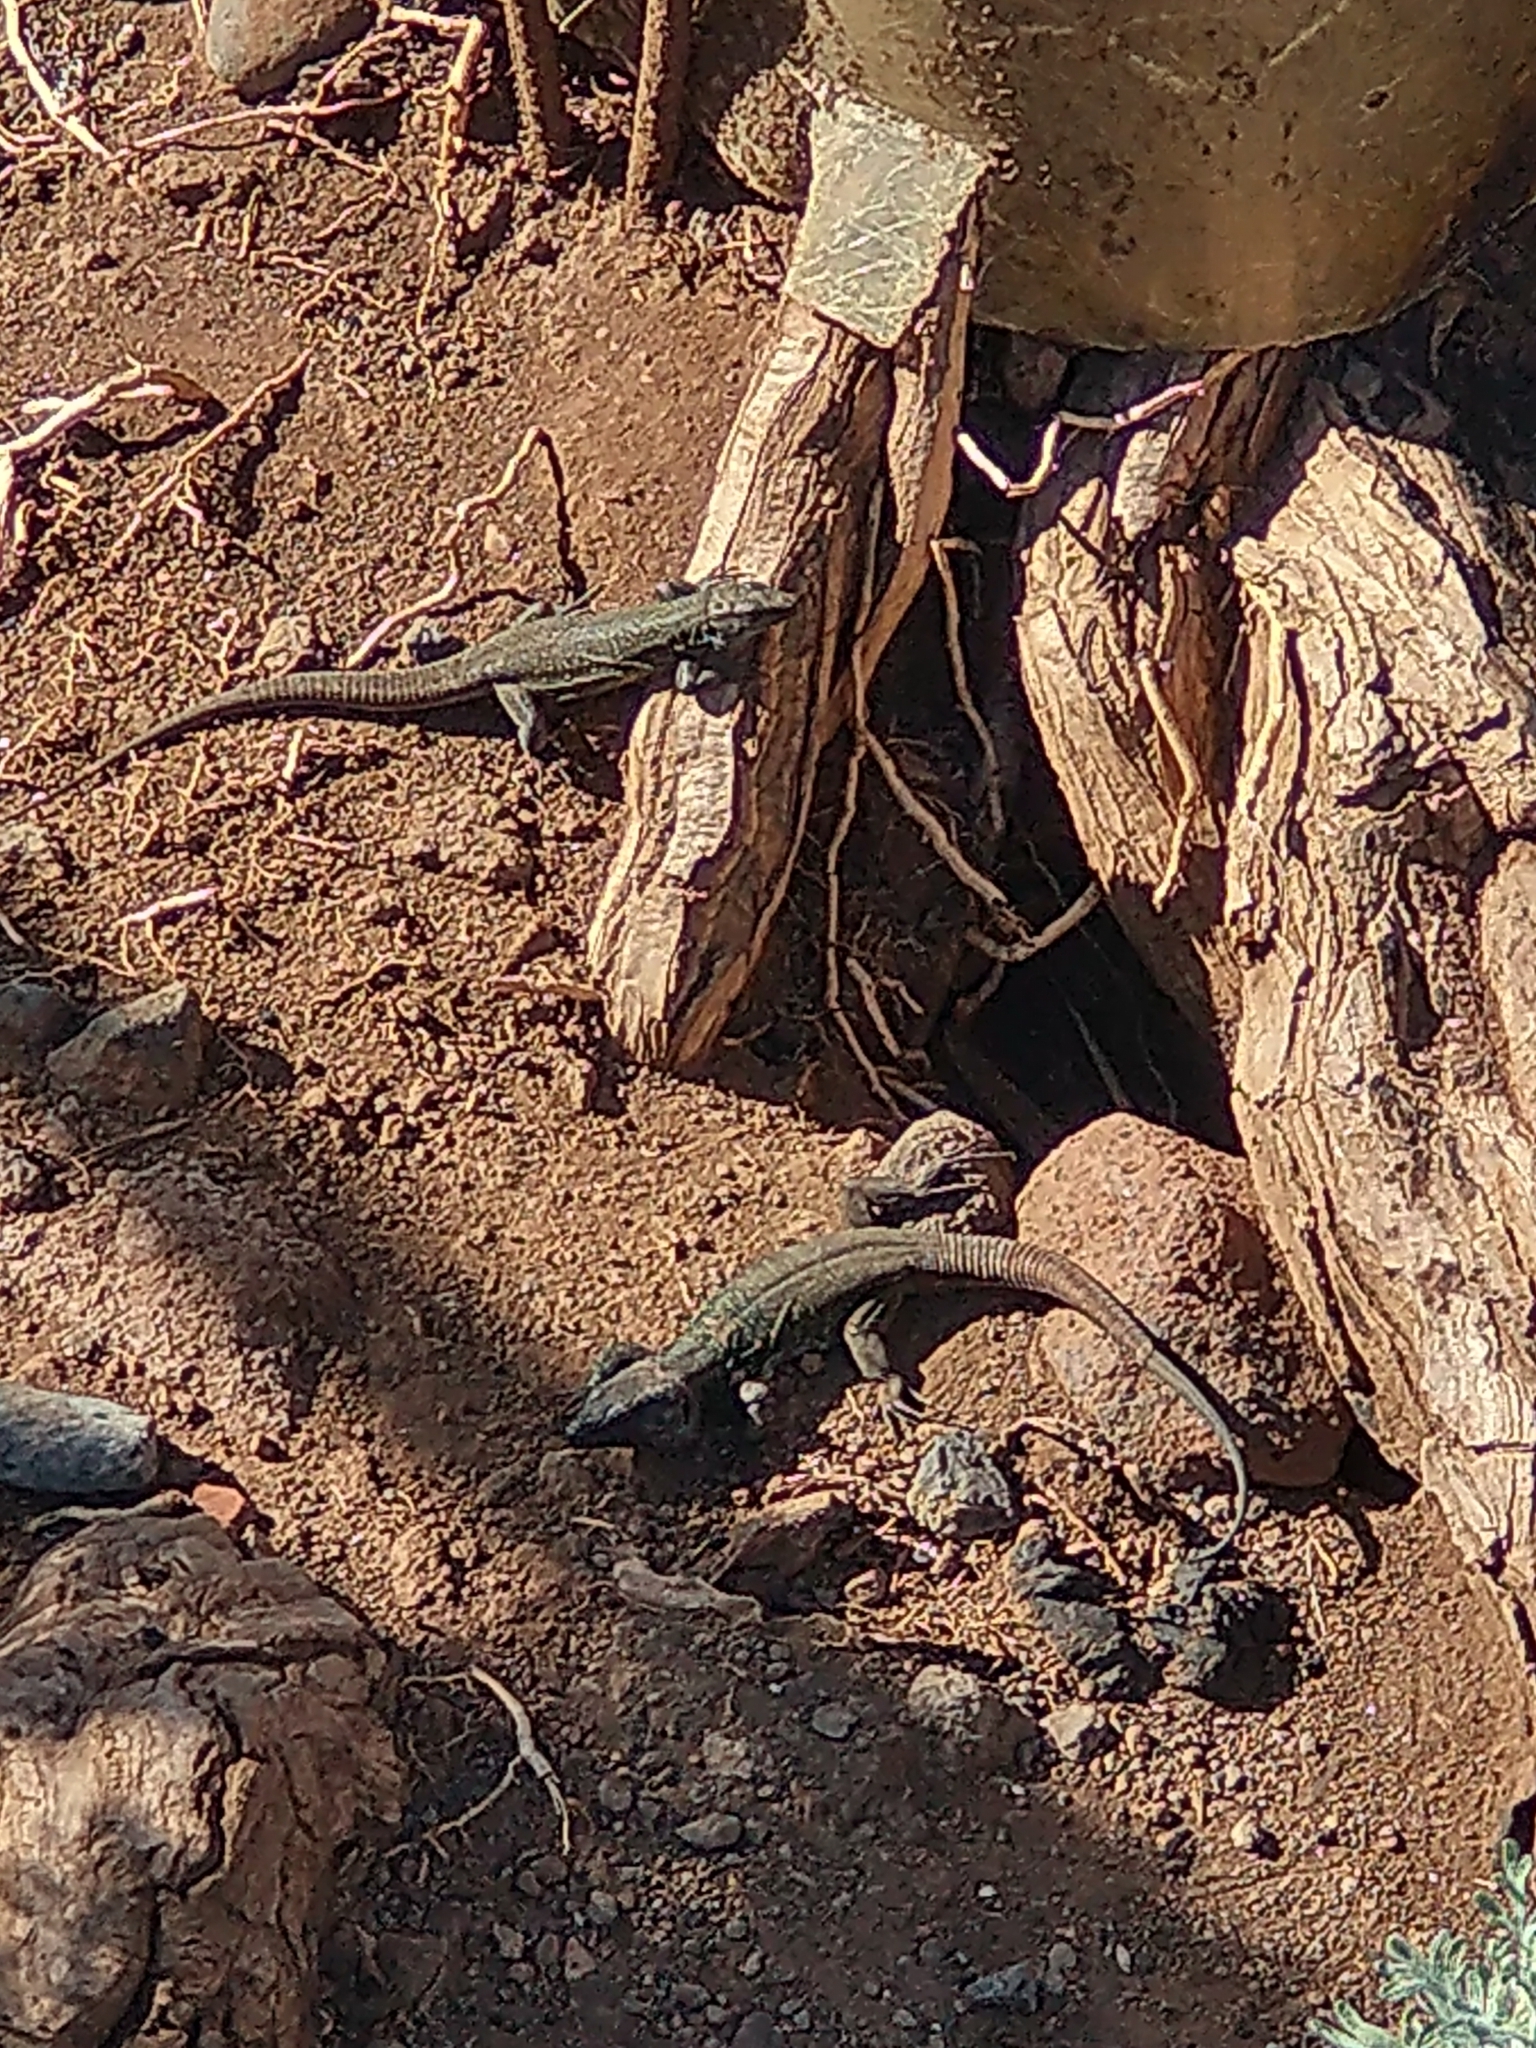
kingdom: Animalia
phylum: Chordata
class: Squamata
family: Lacertidae
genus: Gallotia
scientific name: Gallotia galloti
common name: Gallot's lizard
